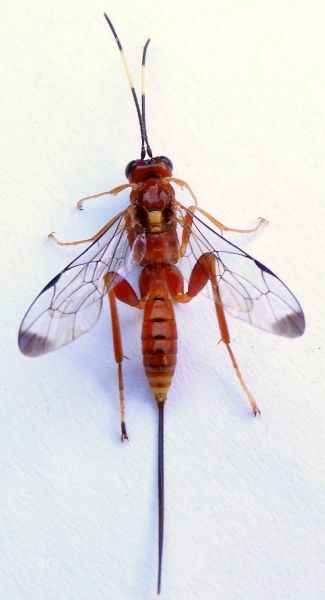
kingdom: Animalia
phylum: Arthropoda
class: Insecta
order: Hymenoptera
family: Ichneumonidae
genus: Arotes
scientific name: Arotes melleus
